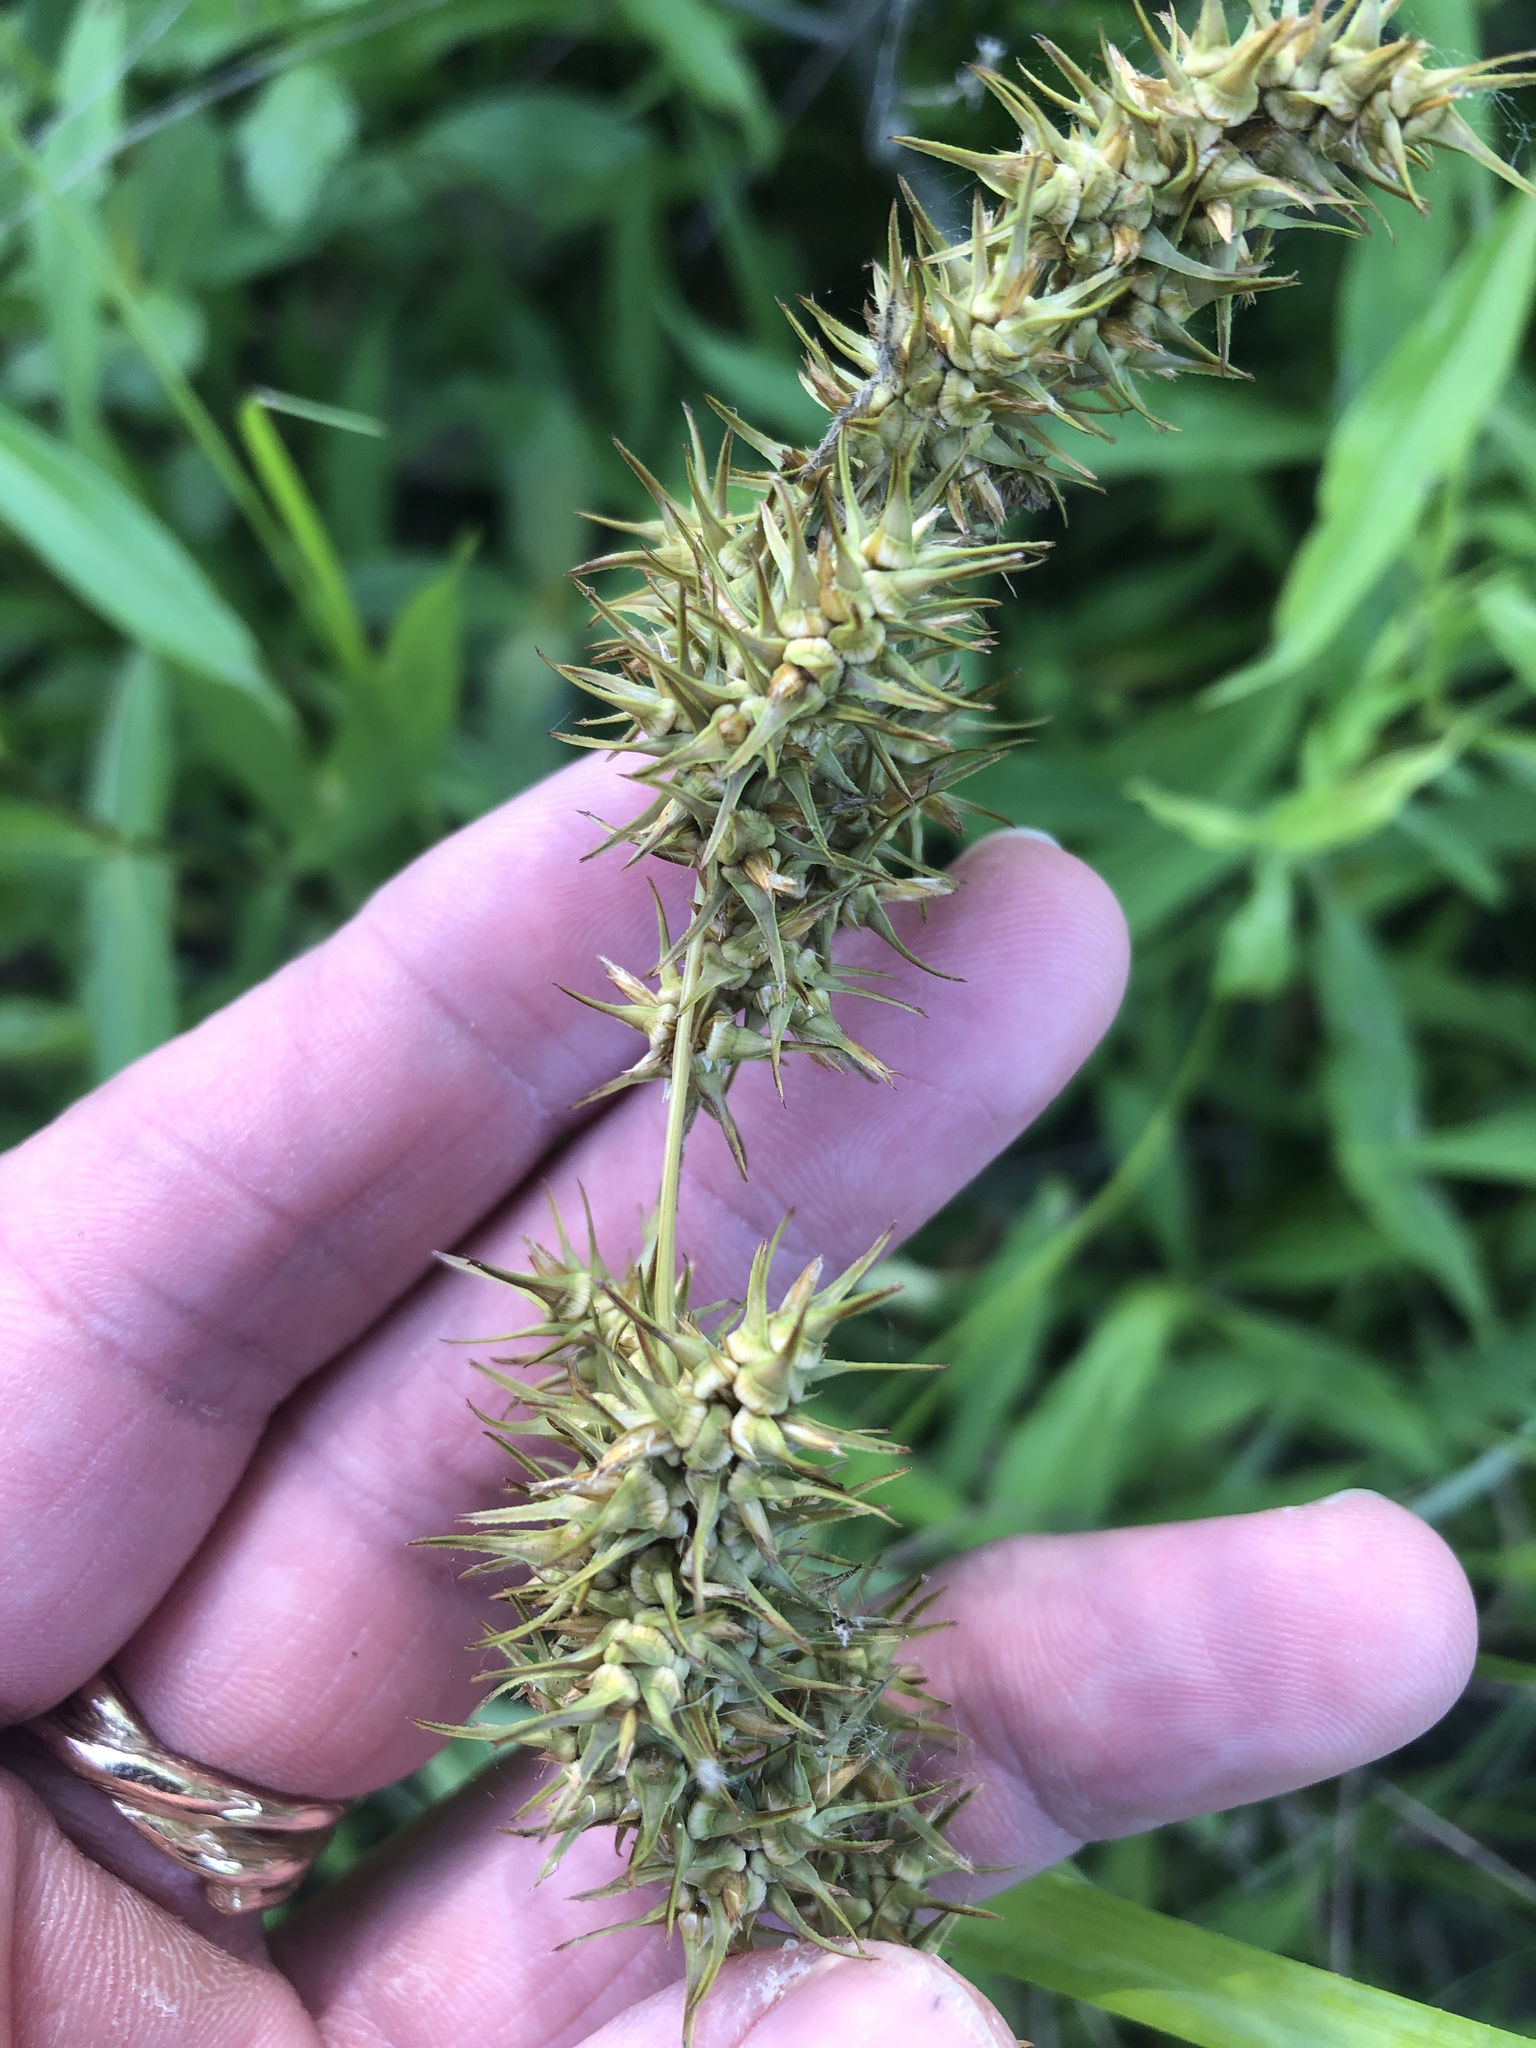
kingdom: Plantae
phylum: Tracheophyta
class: Liliopsida
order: Poales
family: Cyperaceae
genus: Carex
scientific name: Carex crus-corvi
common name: Crow-spur sedge
